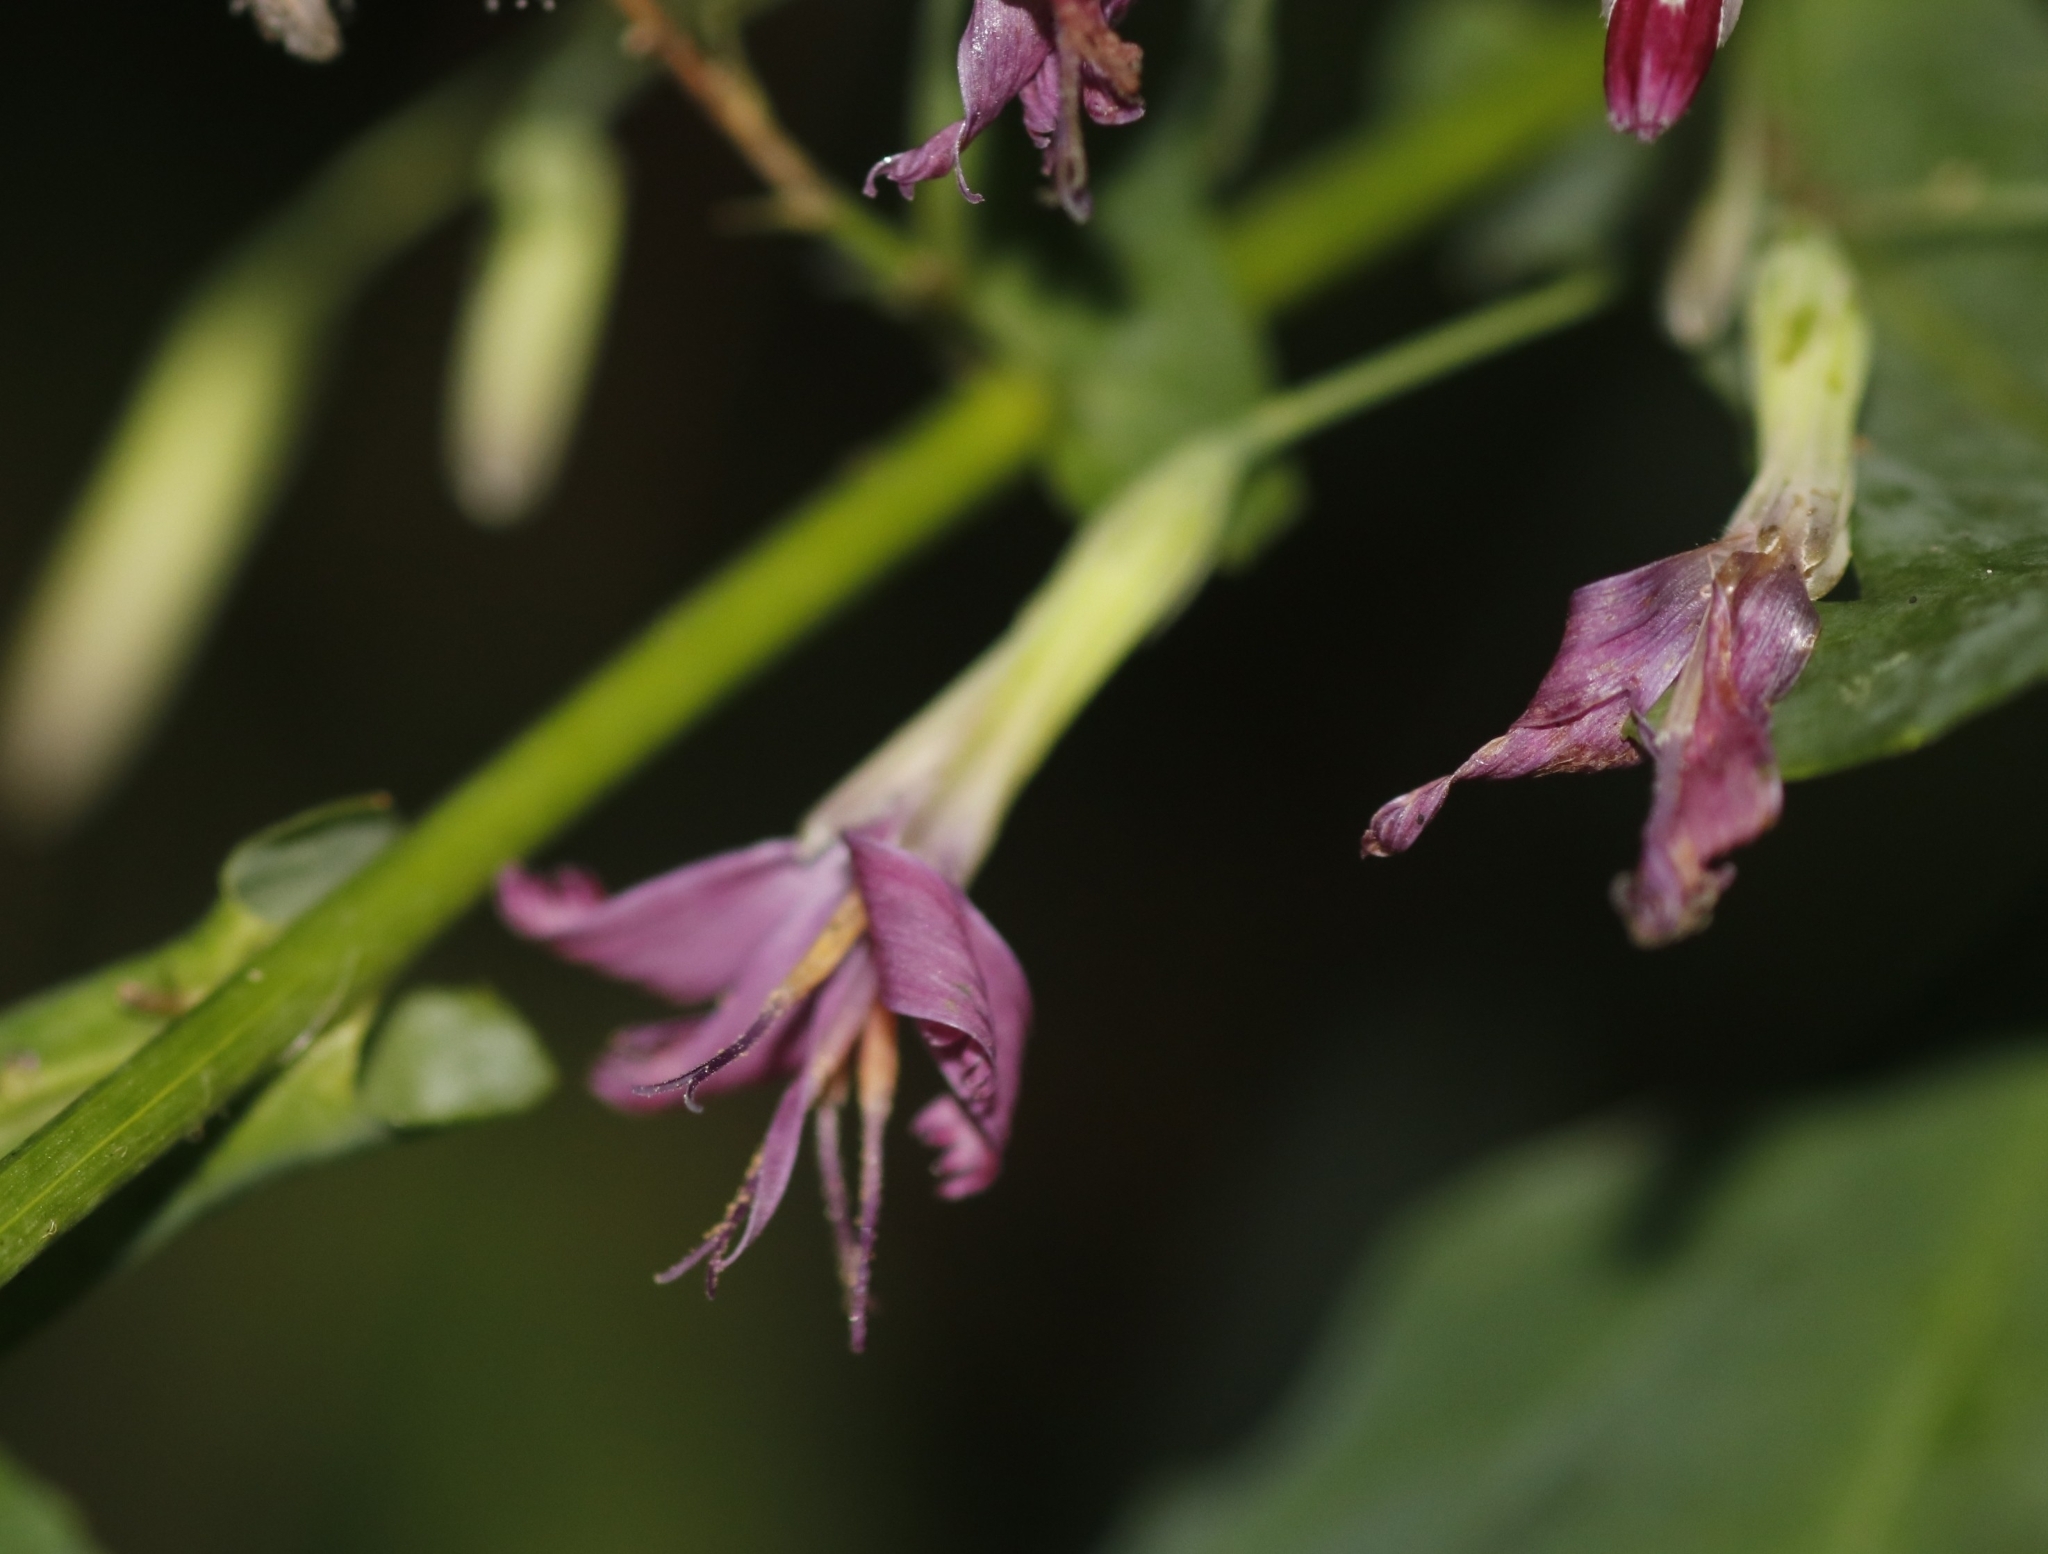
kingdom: Plantae
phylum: Tracheophyta
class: Magnoliopsida
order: Asterales
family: Asteraceae
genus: Prenanthes
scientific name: Prenanthes purpurea
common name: Purple lettuce
